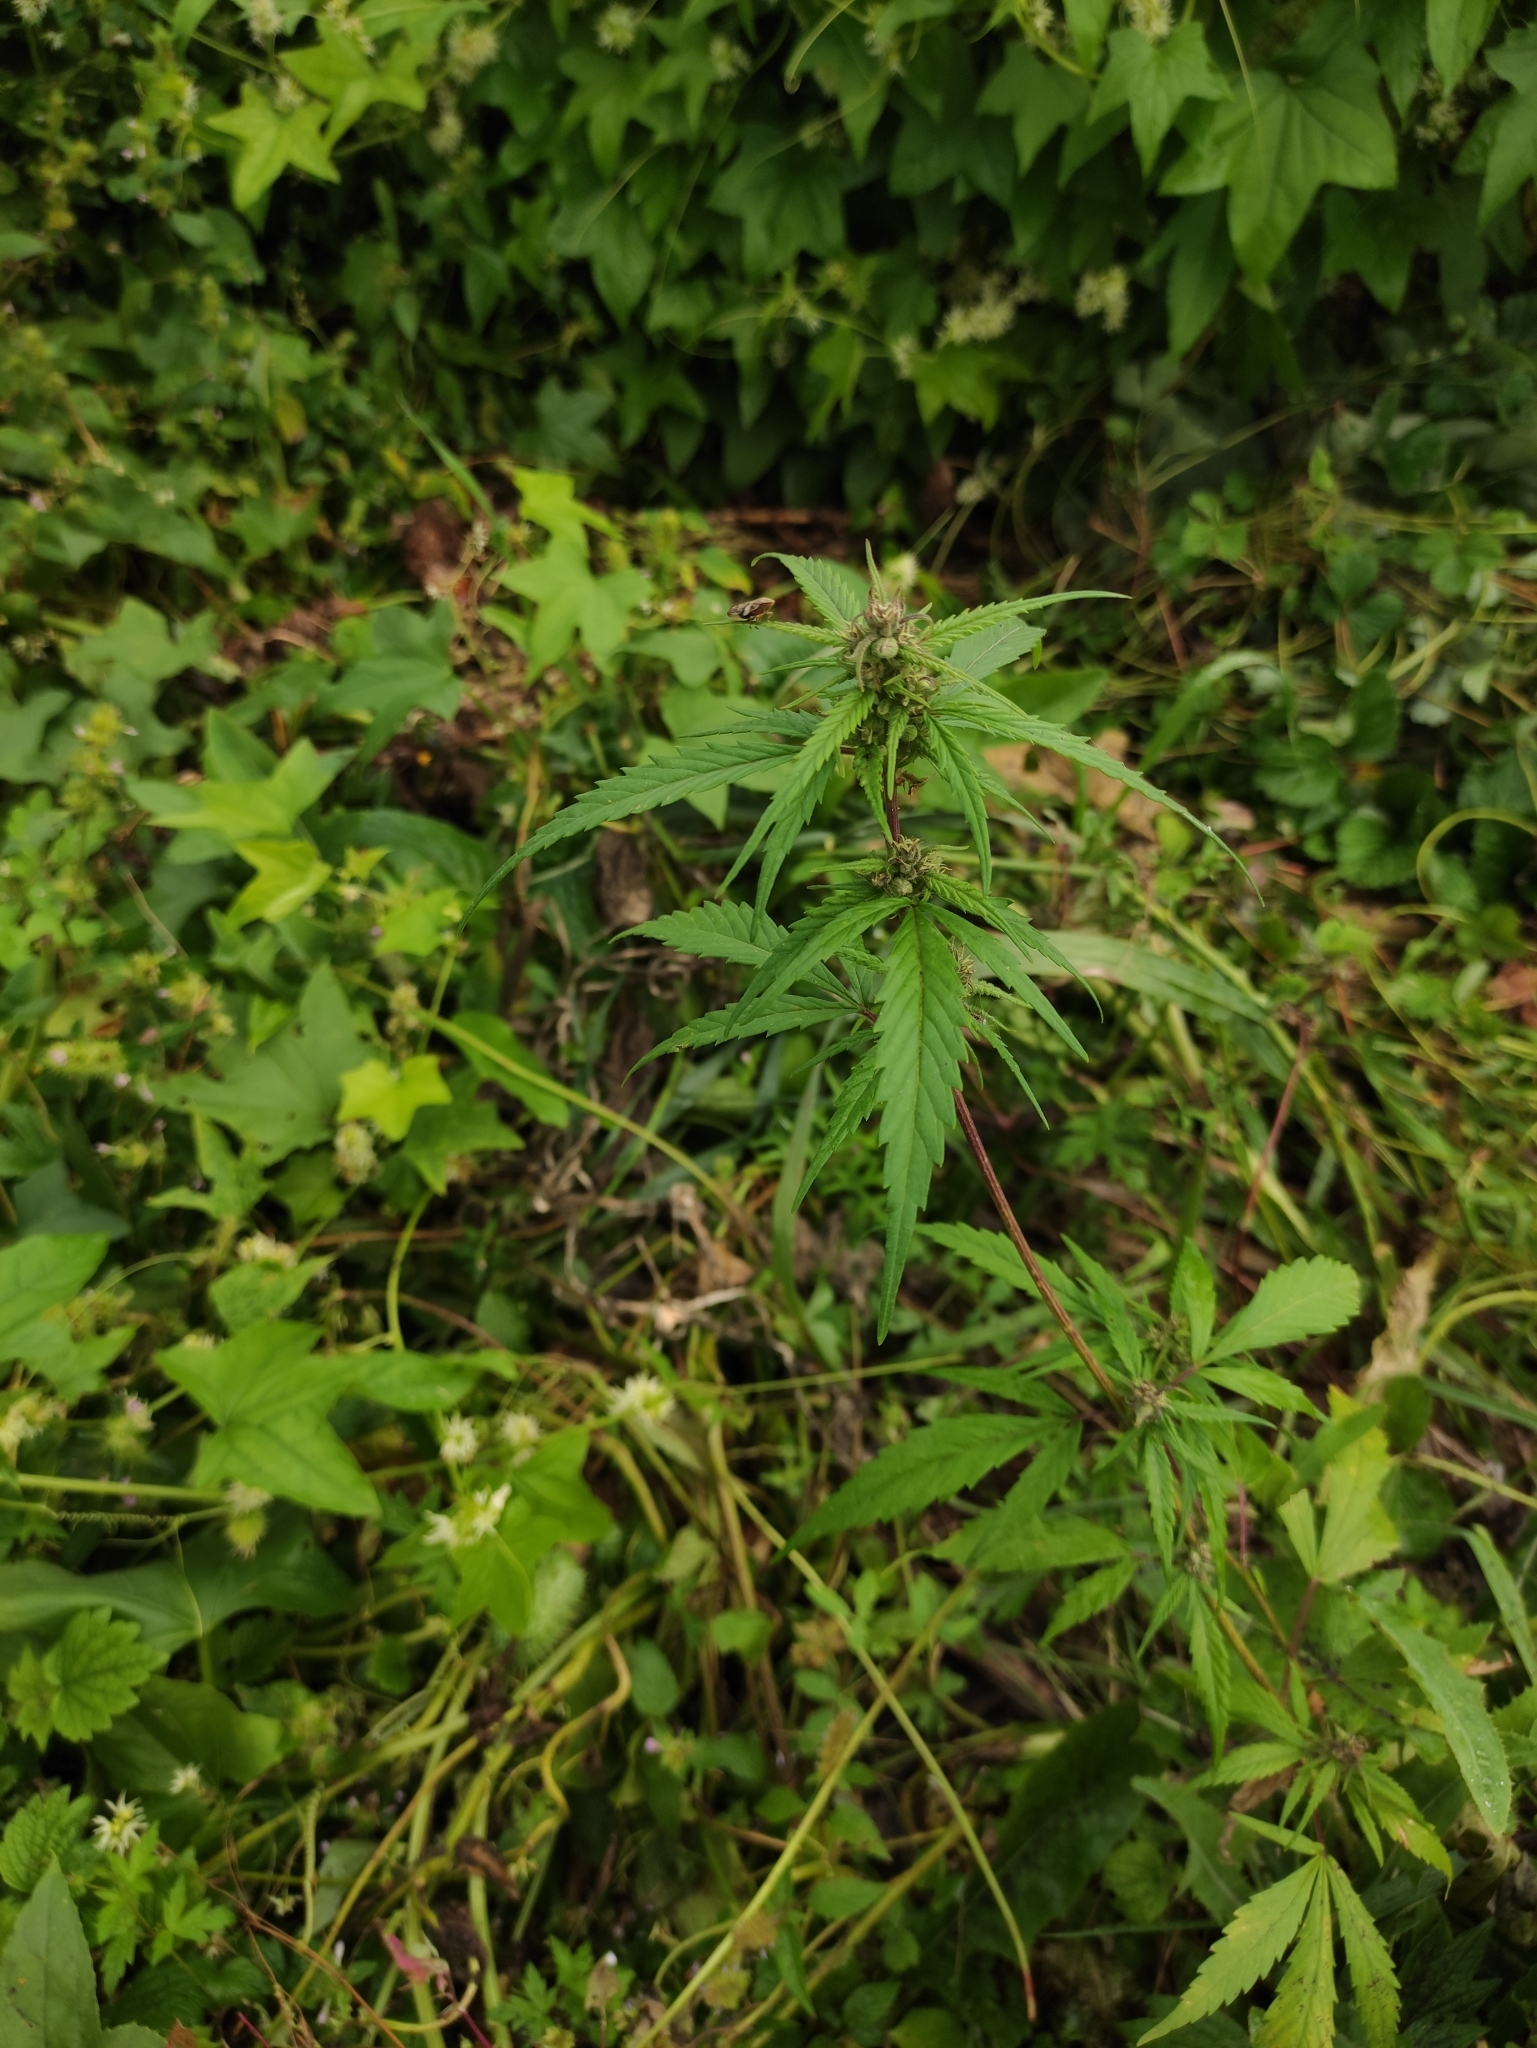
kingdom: Plantae
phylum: Tracheophyta
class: Magnoliopsida
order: Rosales
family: Cannabaceae
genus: Cannabis
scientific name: Cannabis sativa
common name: Hemp
